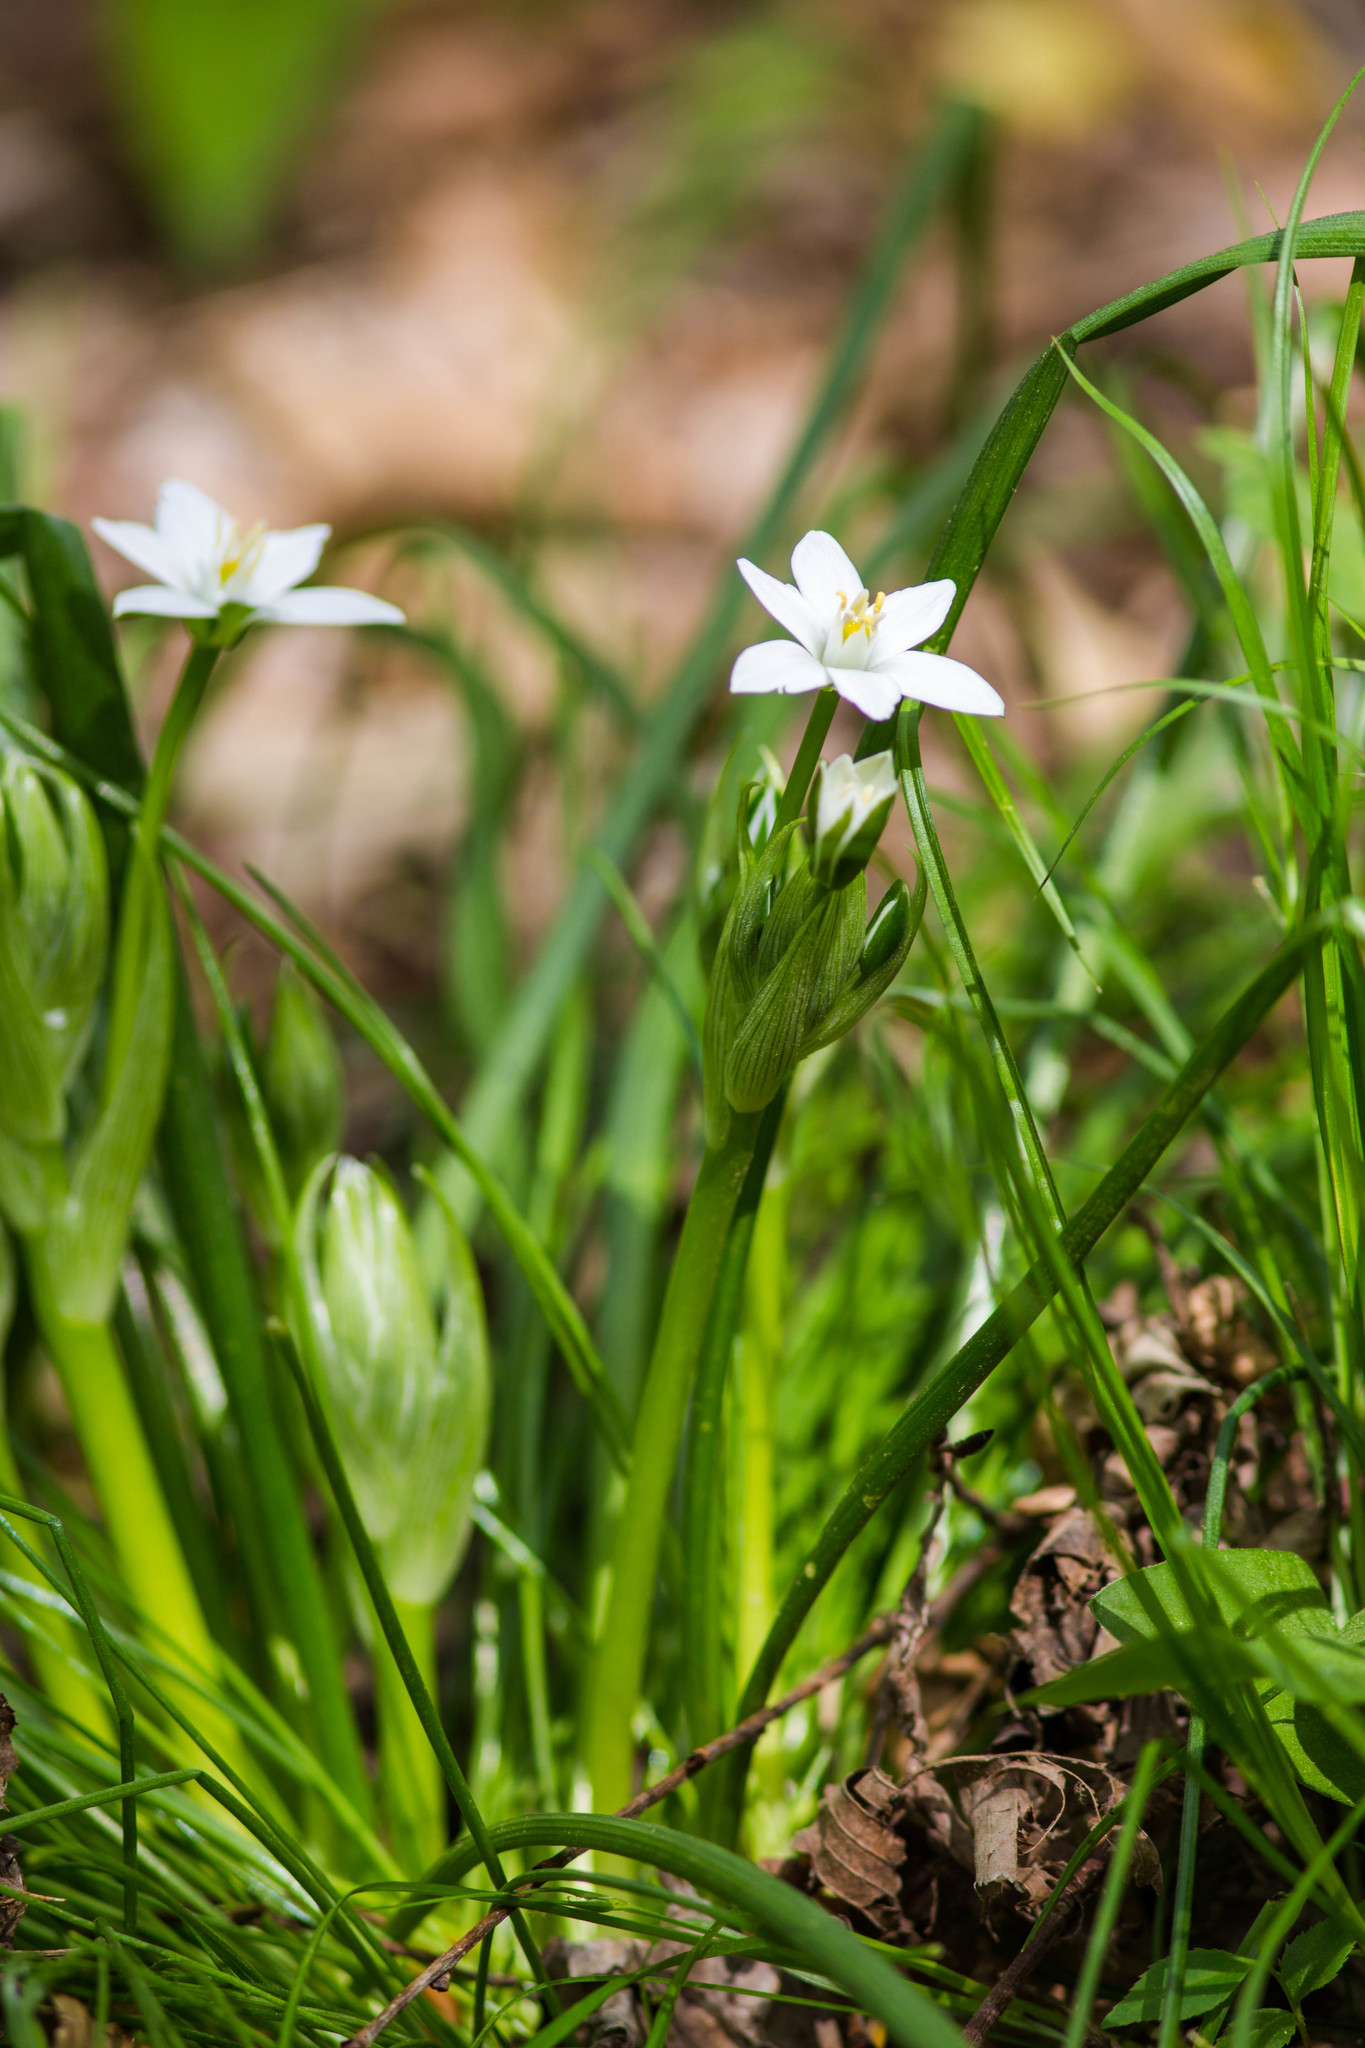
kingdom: Plantae
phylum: Tracheophyta
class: Liliopsida
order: Asparagales
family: Asparagaceae
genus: Ornithogalum
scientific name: Ornithogalum umbellatum
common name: Garden star-of-bethlehem
